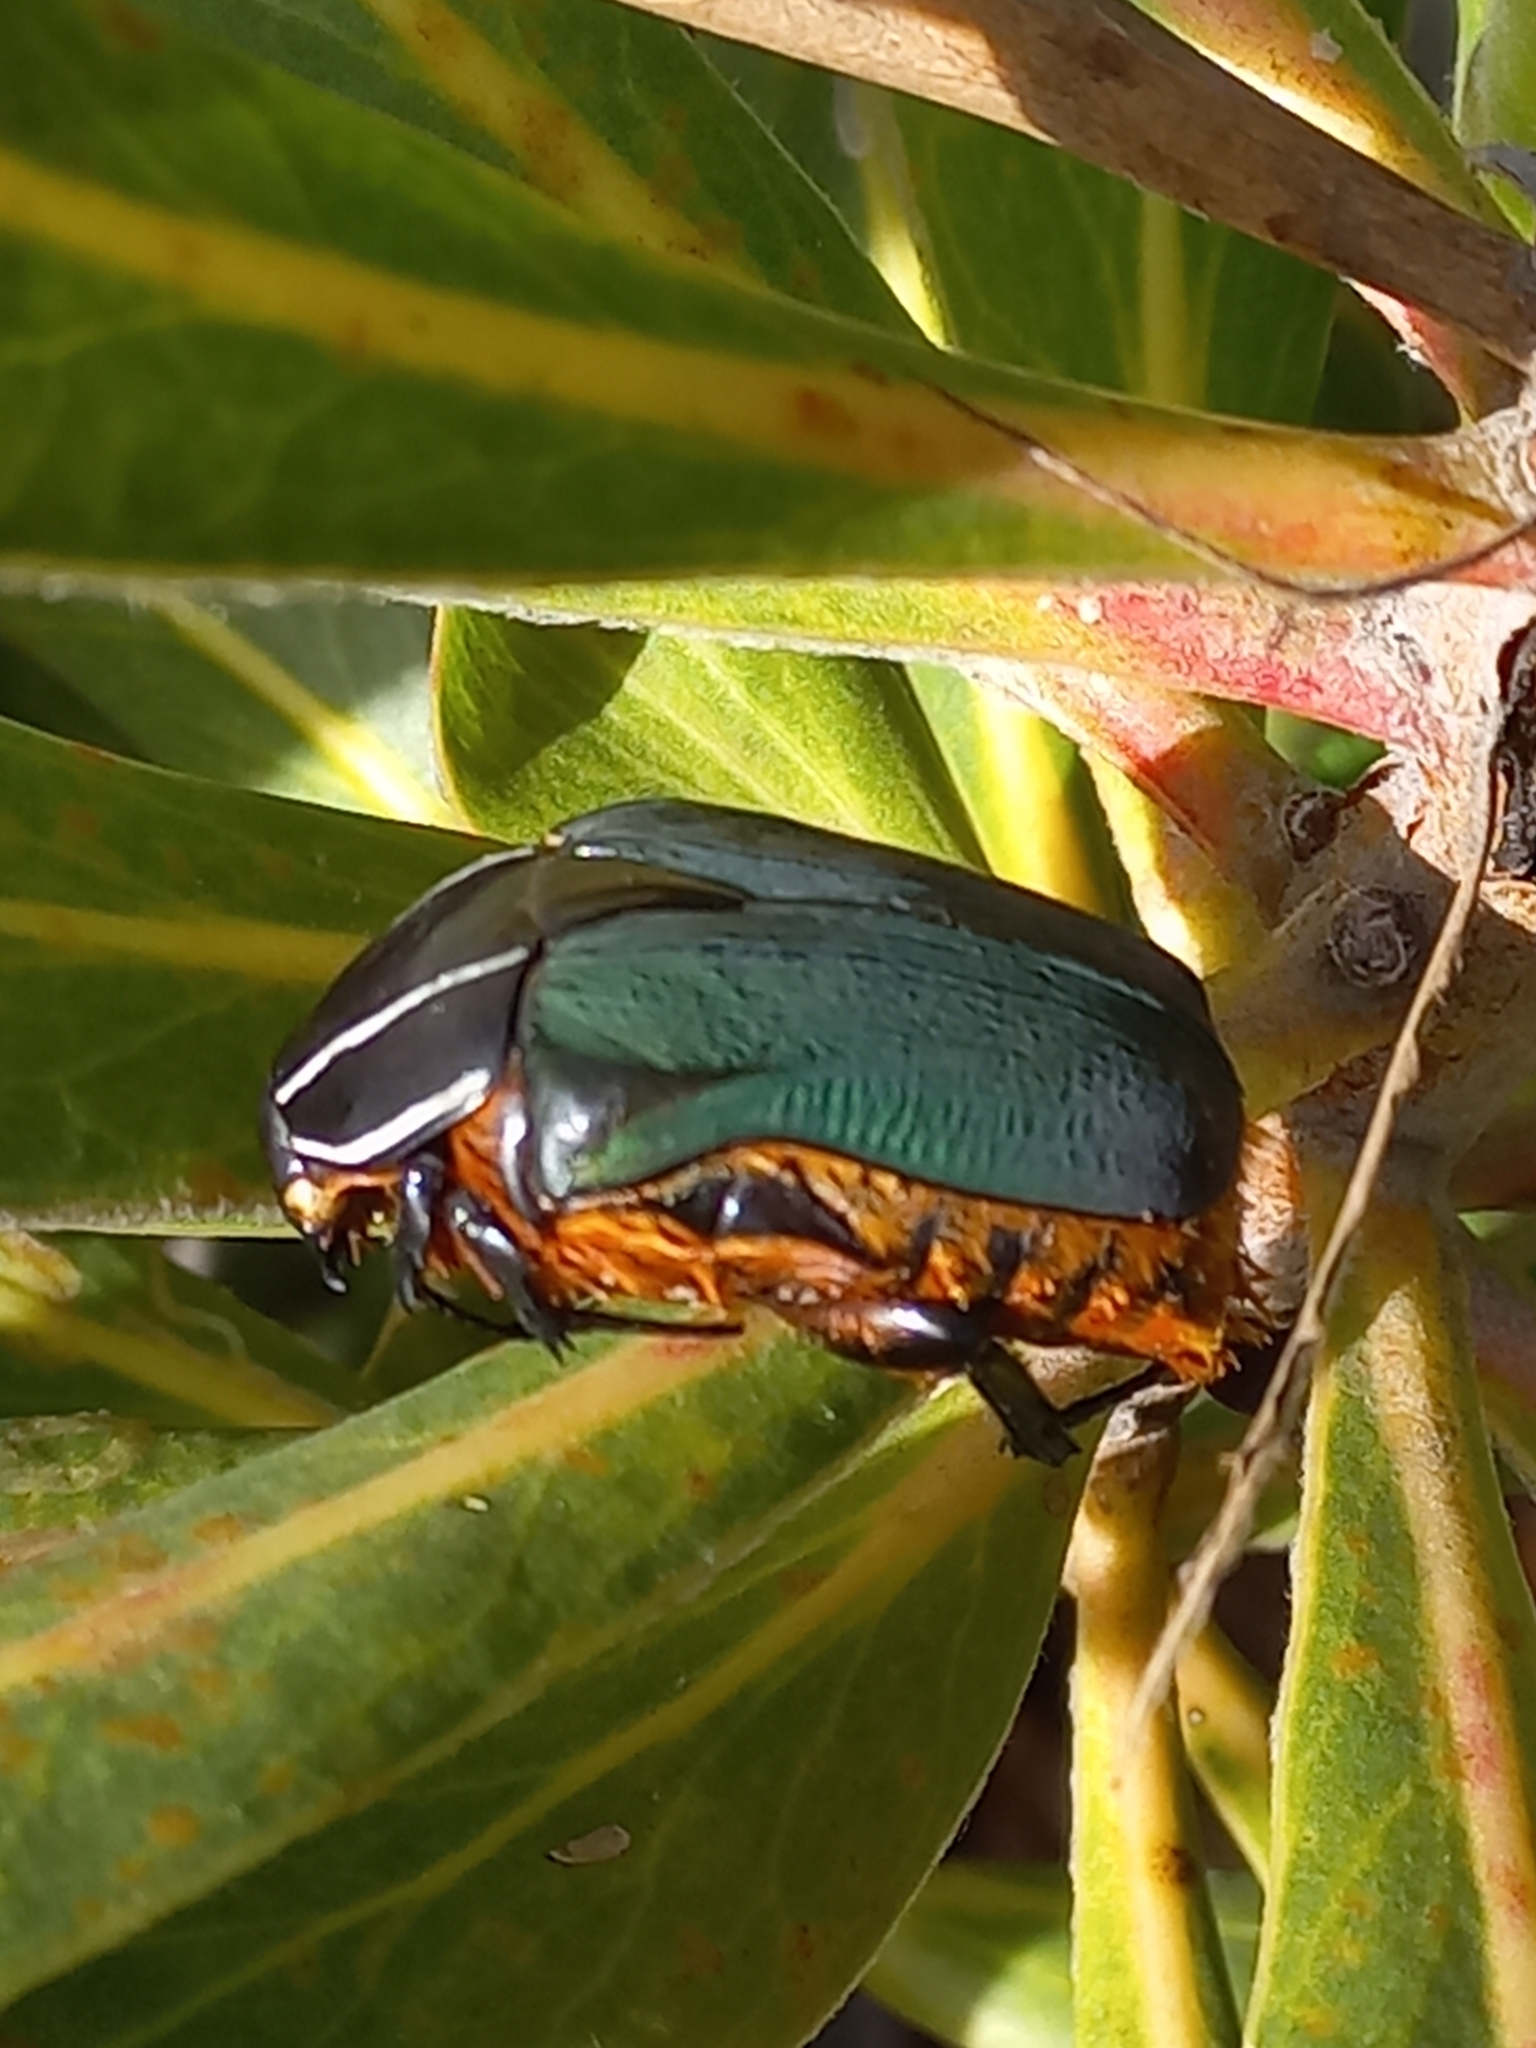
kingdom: Animalia
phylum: Arthropoda
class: Insecta
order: Coleoptera
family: Scarabaeidae
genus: Trichostetha
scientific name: Trichostetha fascicularis
